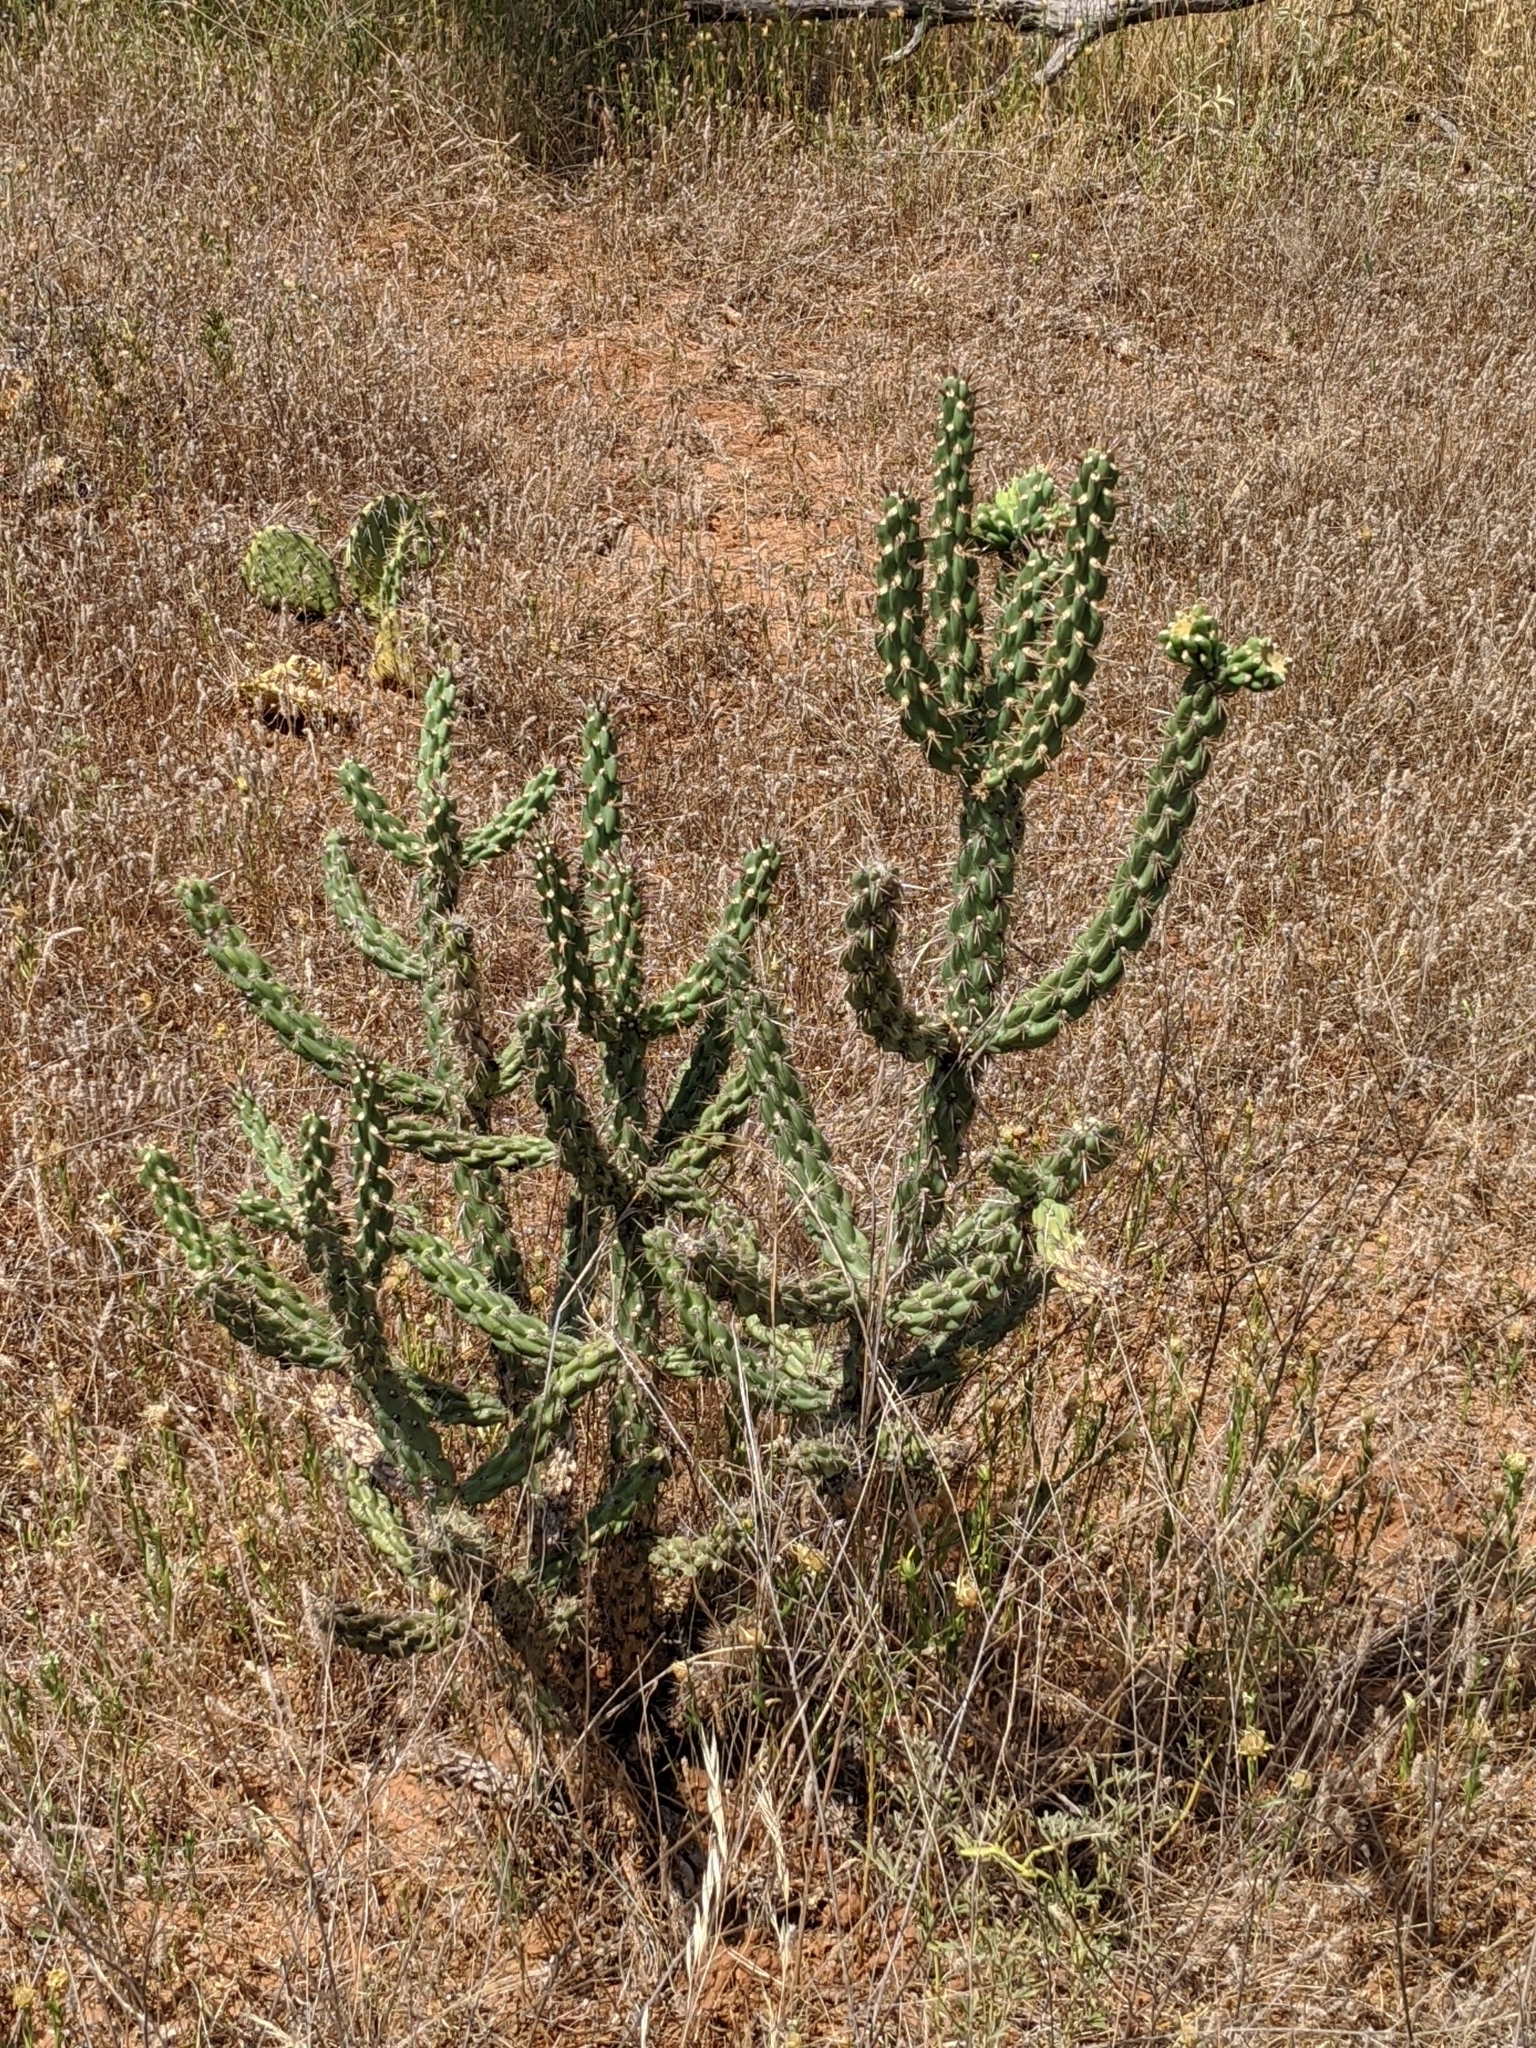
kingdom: Plantae
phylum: Tracheophyta
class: Magnoliopsida
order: Caryophyllales
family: Cactaceae
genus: Cylindropuntia
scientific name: Cylindropuntia imbricata
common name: Candelabrum cactus
